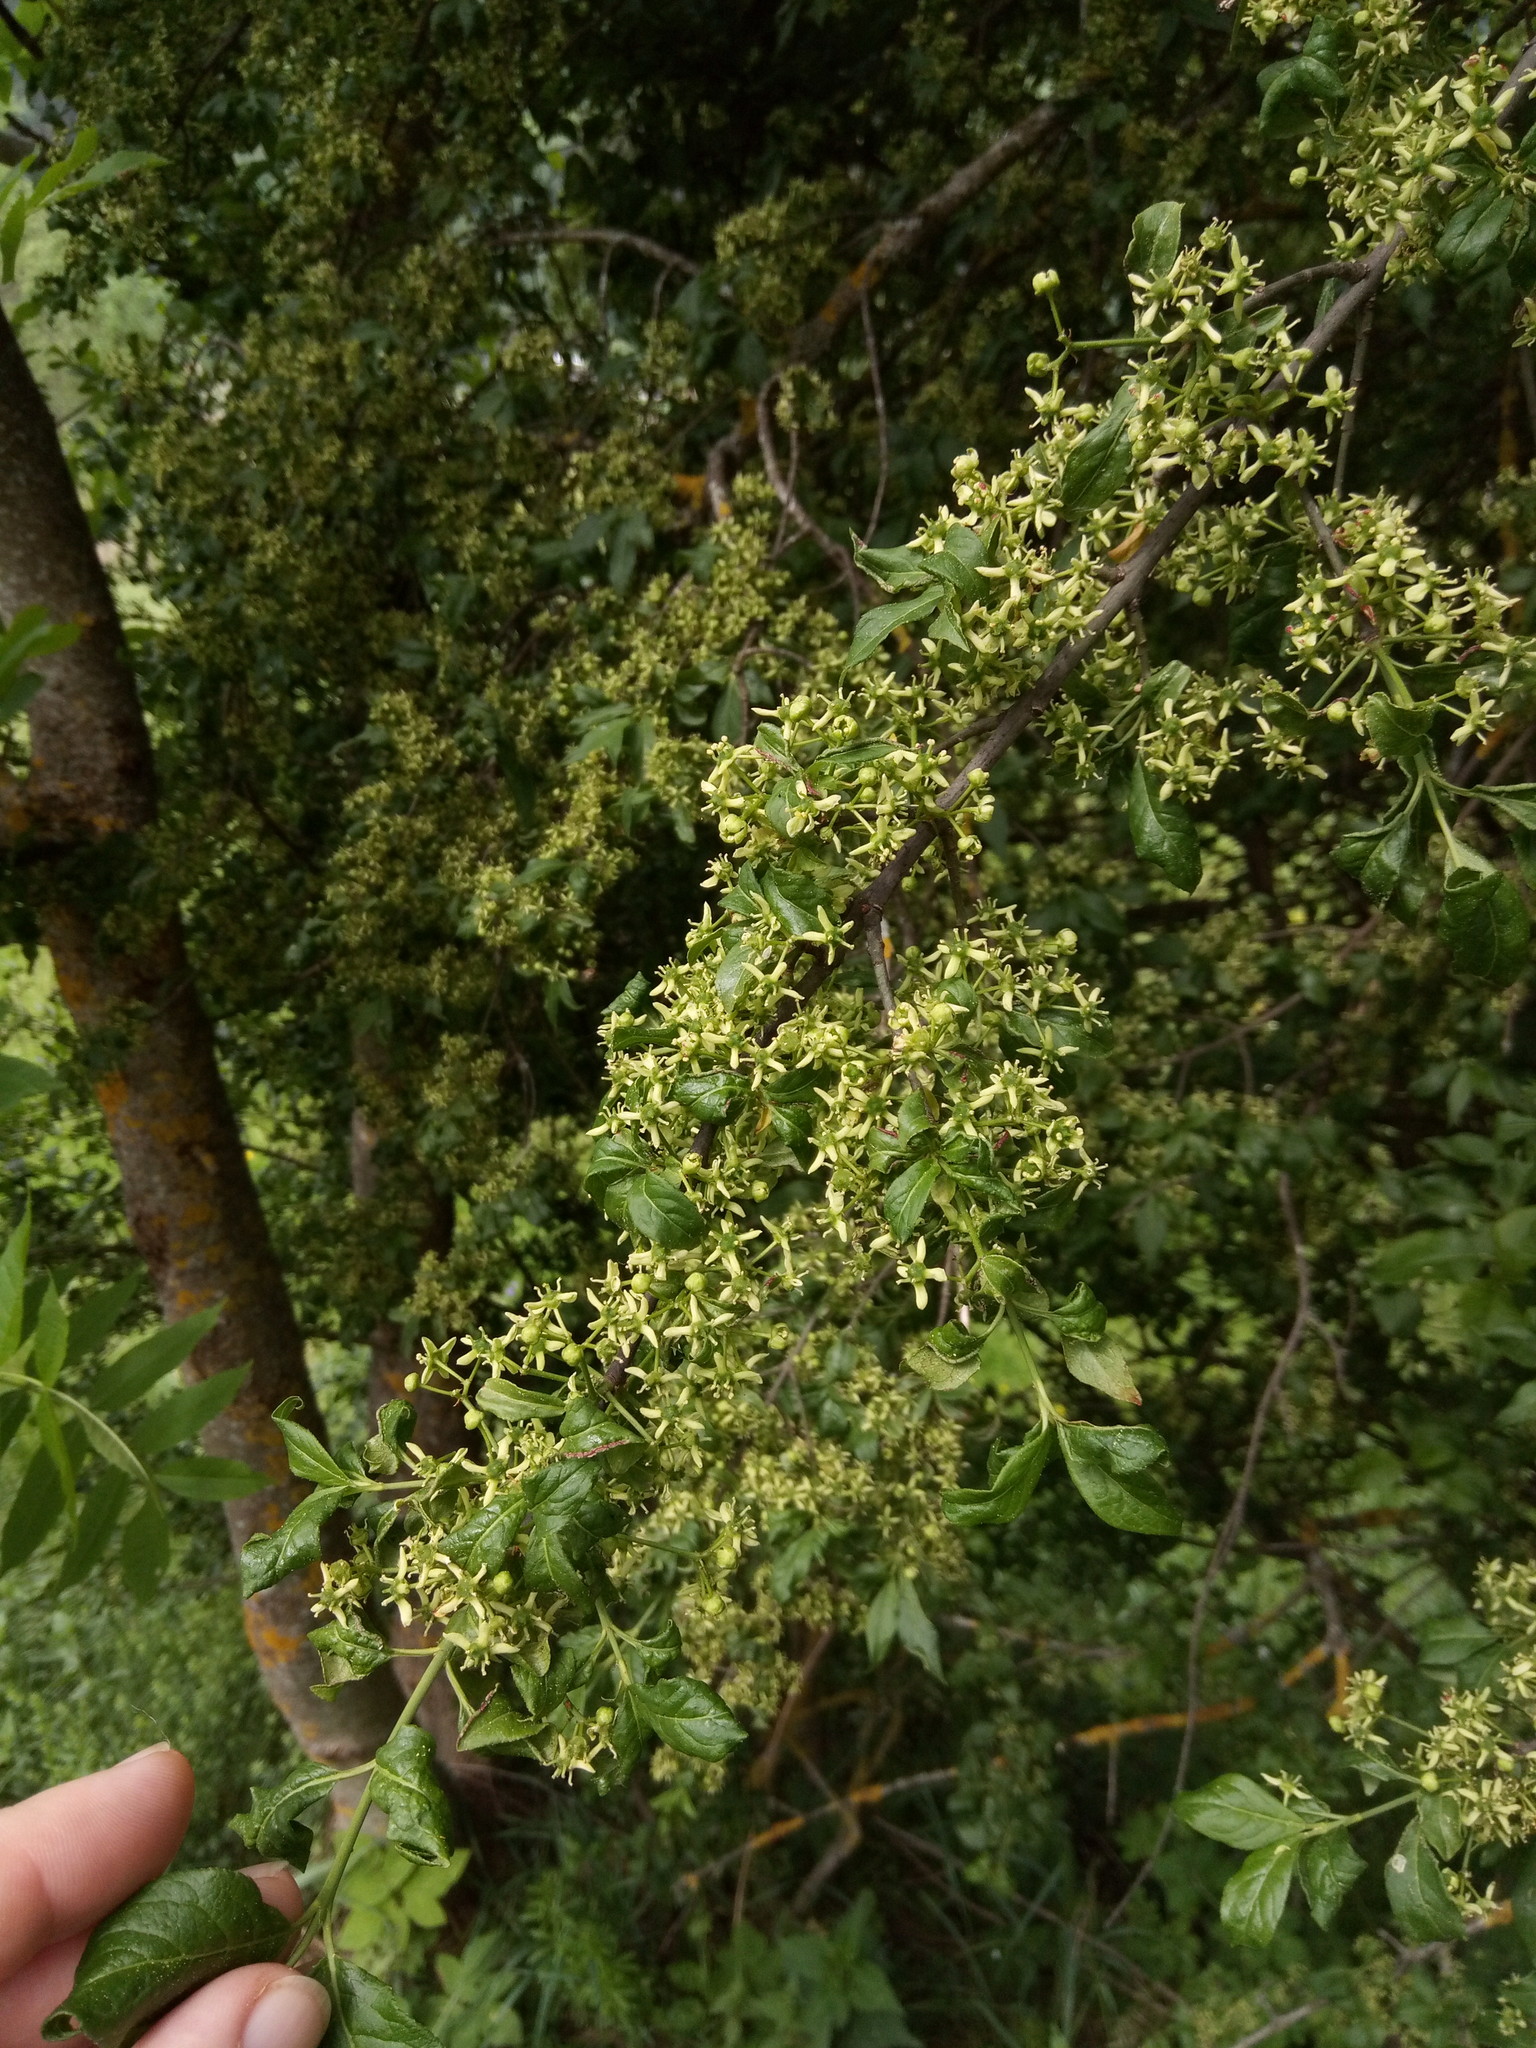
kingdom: Plantae
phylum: Tracheophyta
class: Magnoliopsida
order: Celastrales
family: Celastraceae
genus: Euonymus
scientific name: Euonymus europaeus
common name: Spindle
